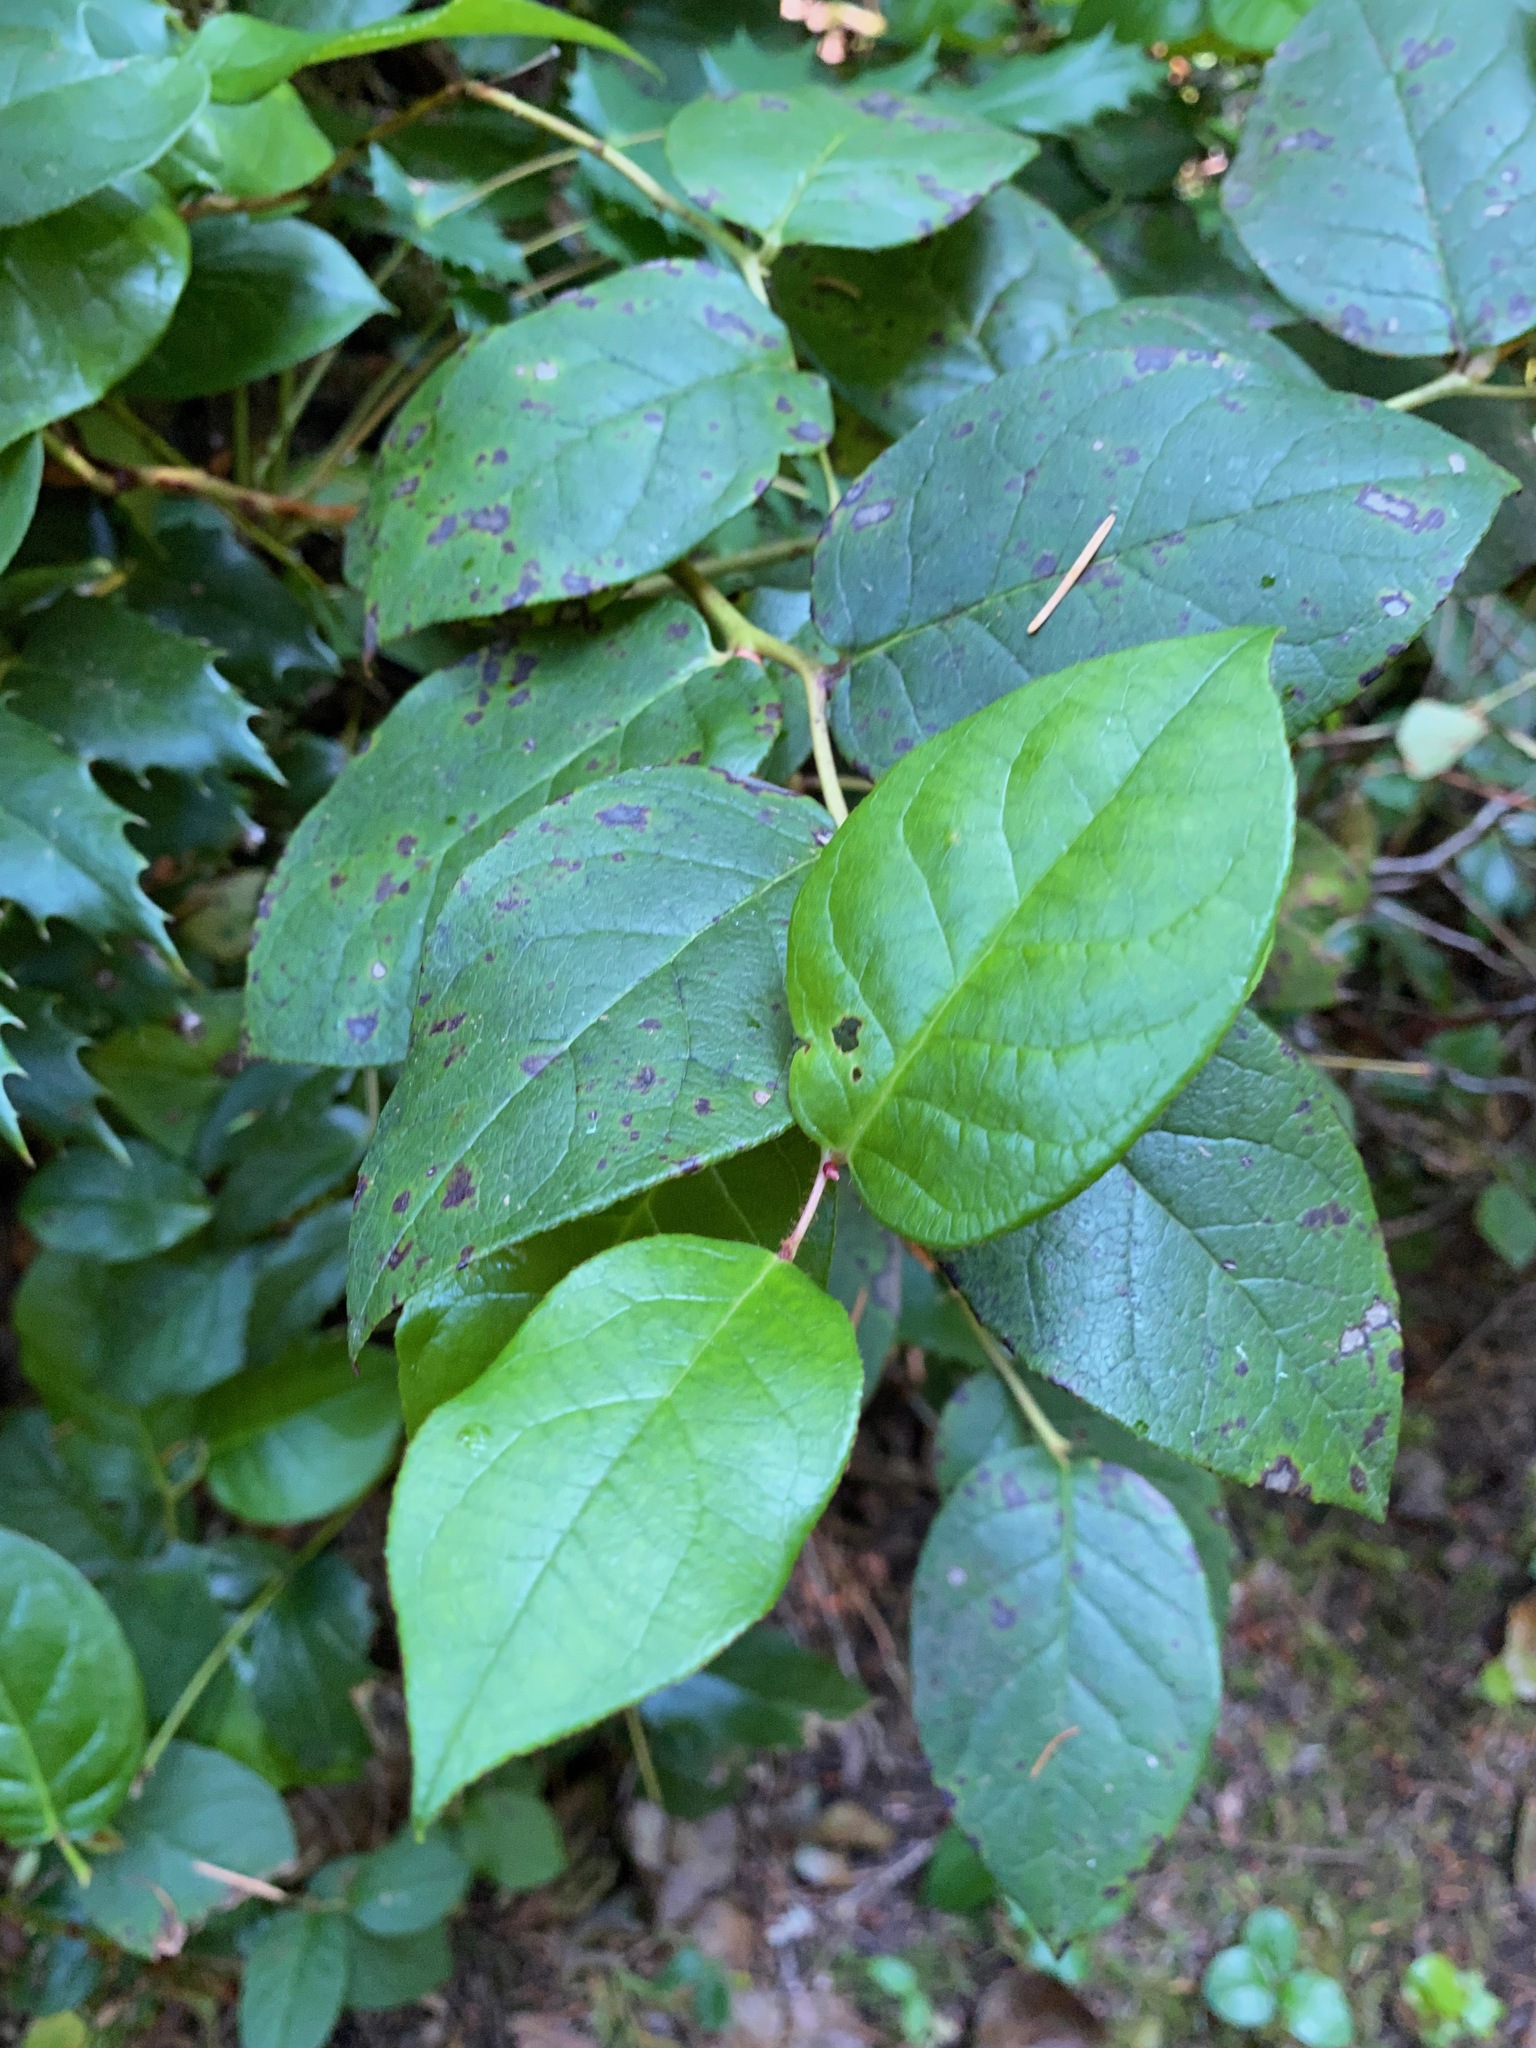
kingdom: Plantae
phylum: Tracheophyta
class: Magnoliopsida
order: Ericales
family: Ericaceae
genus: Gaultheria
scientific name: Gaultheria shallon
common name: Shallon
